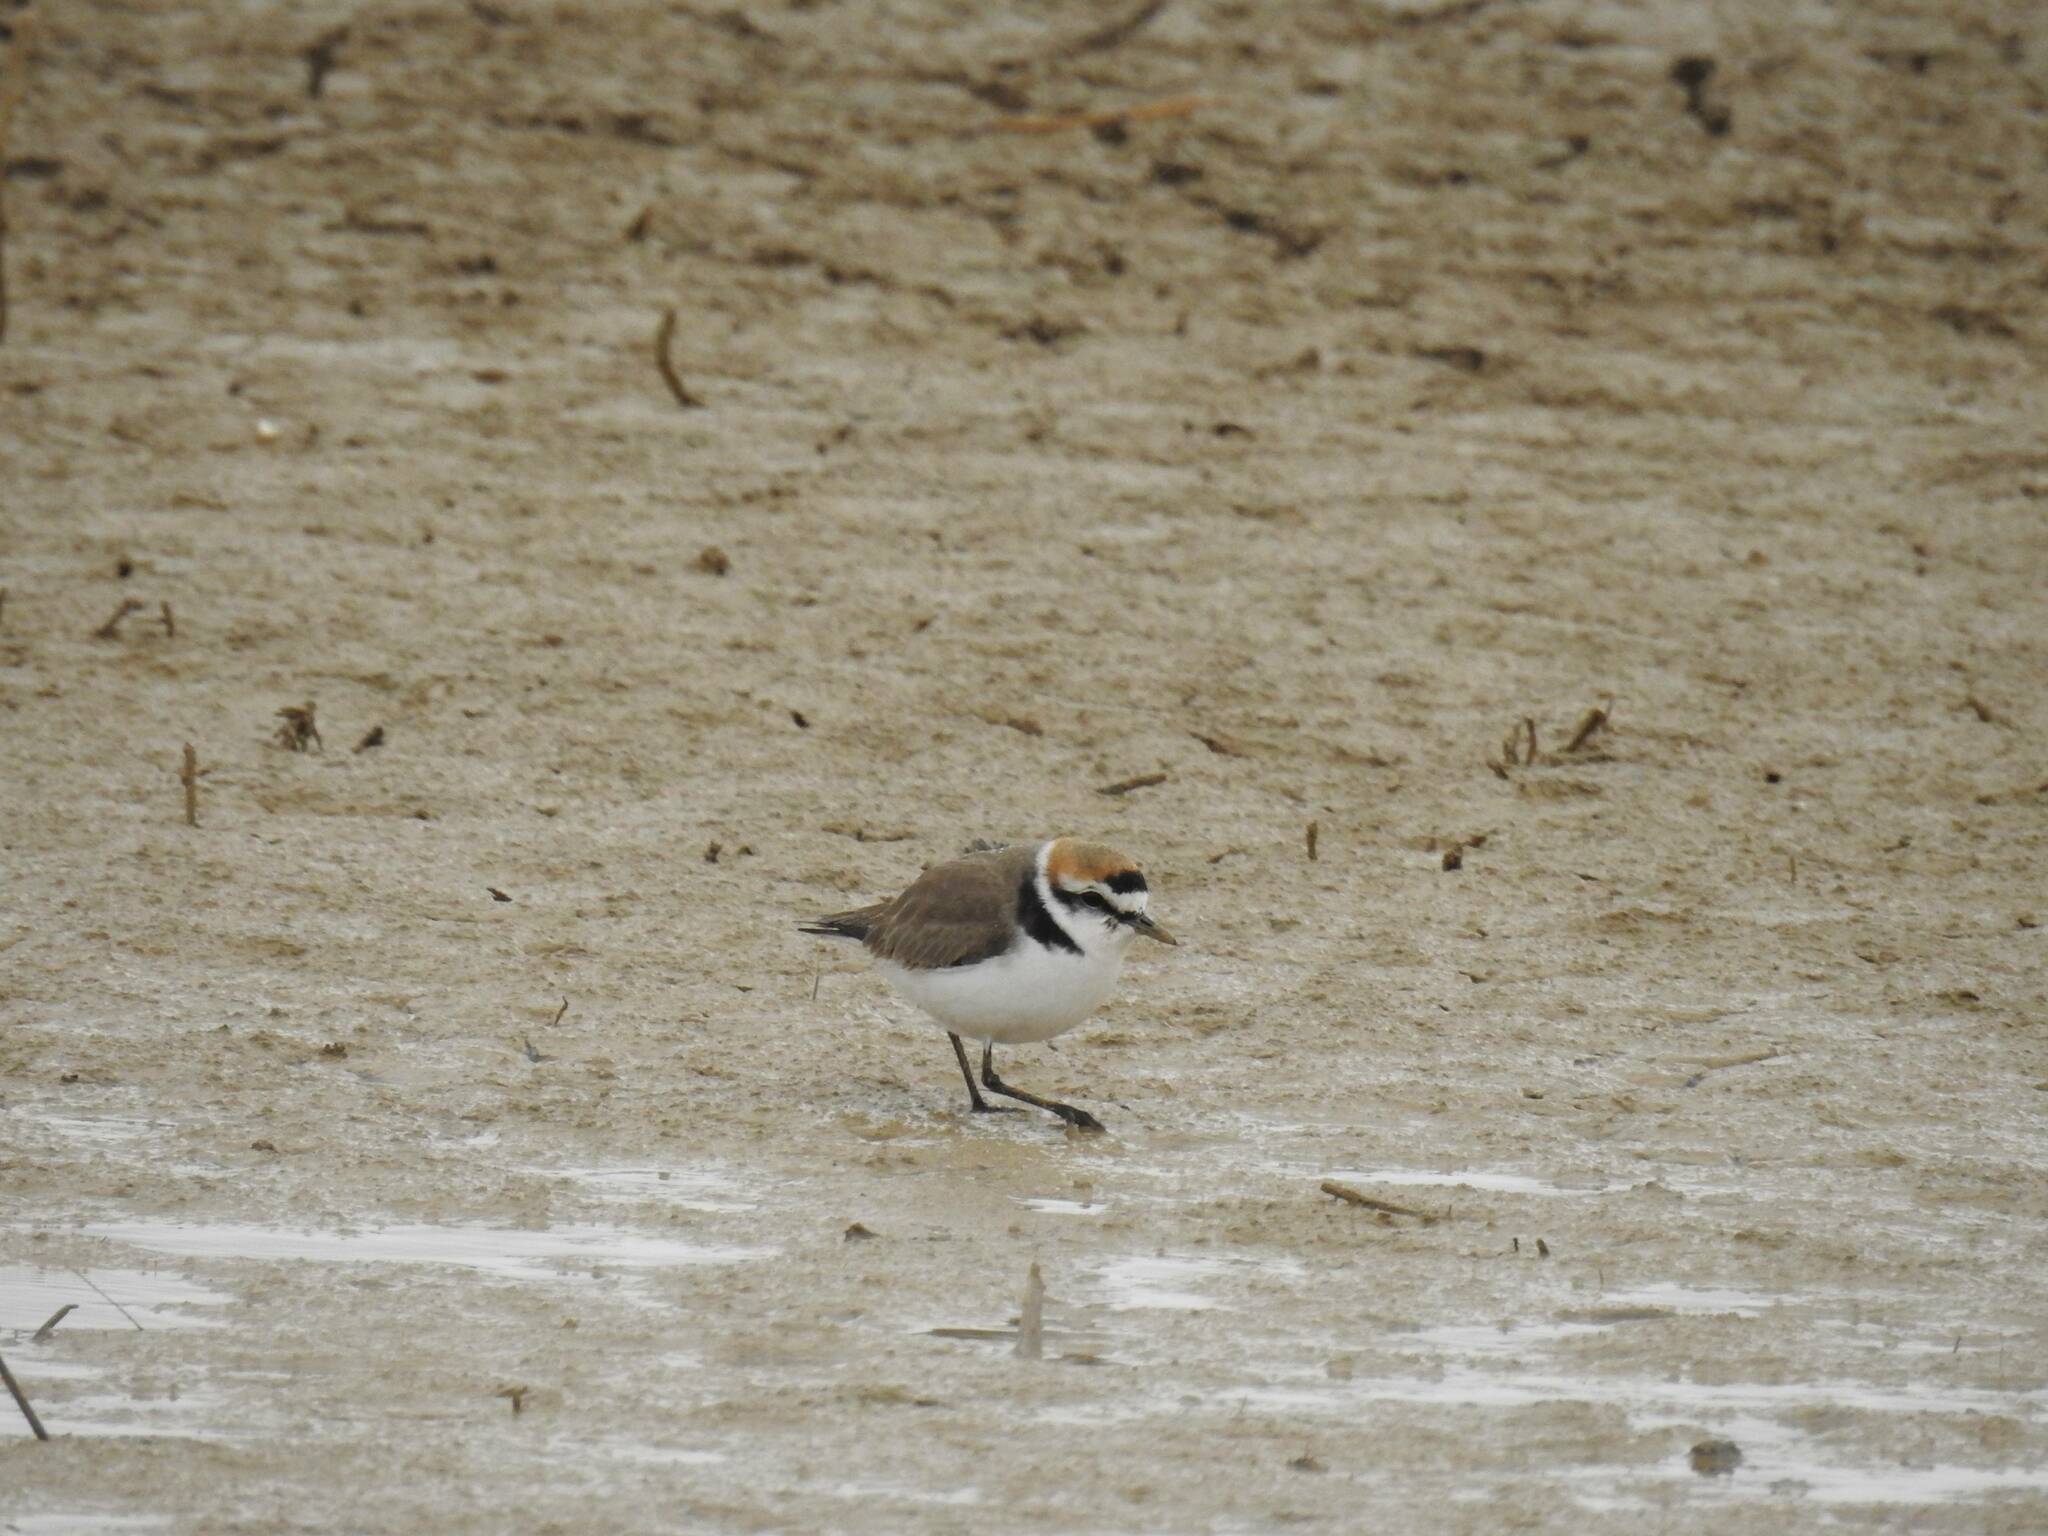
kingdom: Animalia
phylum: Chordata
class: Aves
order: Charadriiformes
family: Charadriidae
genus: Charadrius
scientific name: Charadrius alexandrinus
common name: Kentish plover
